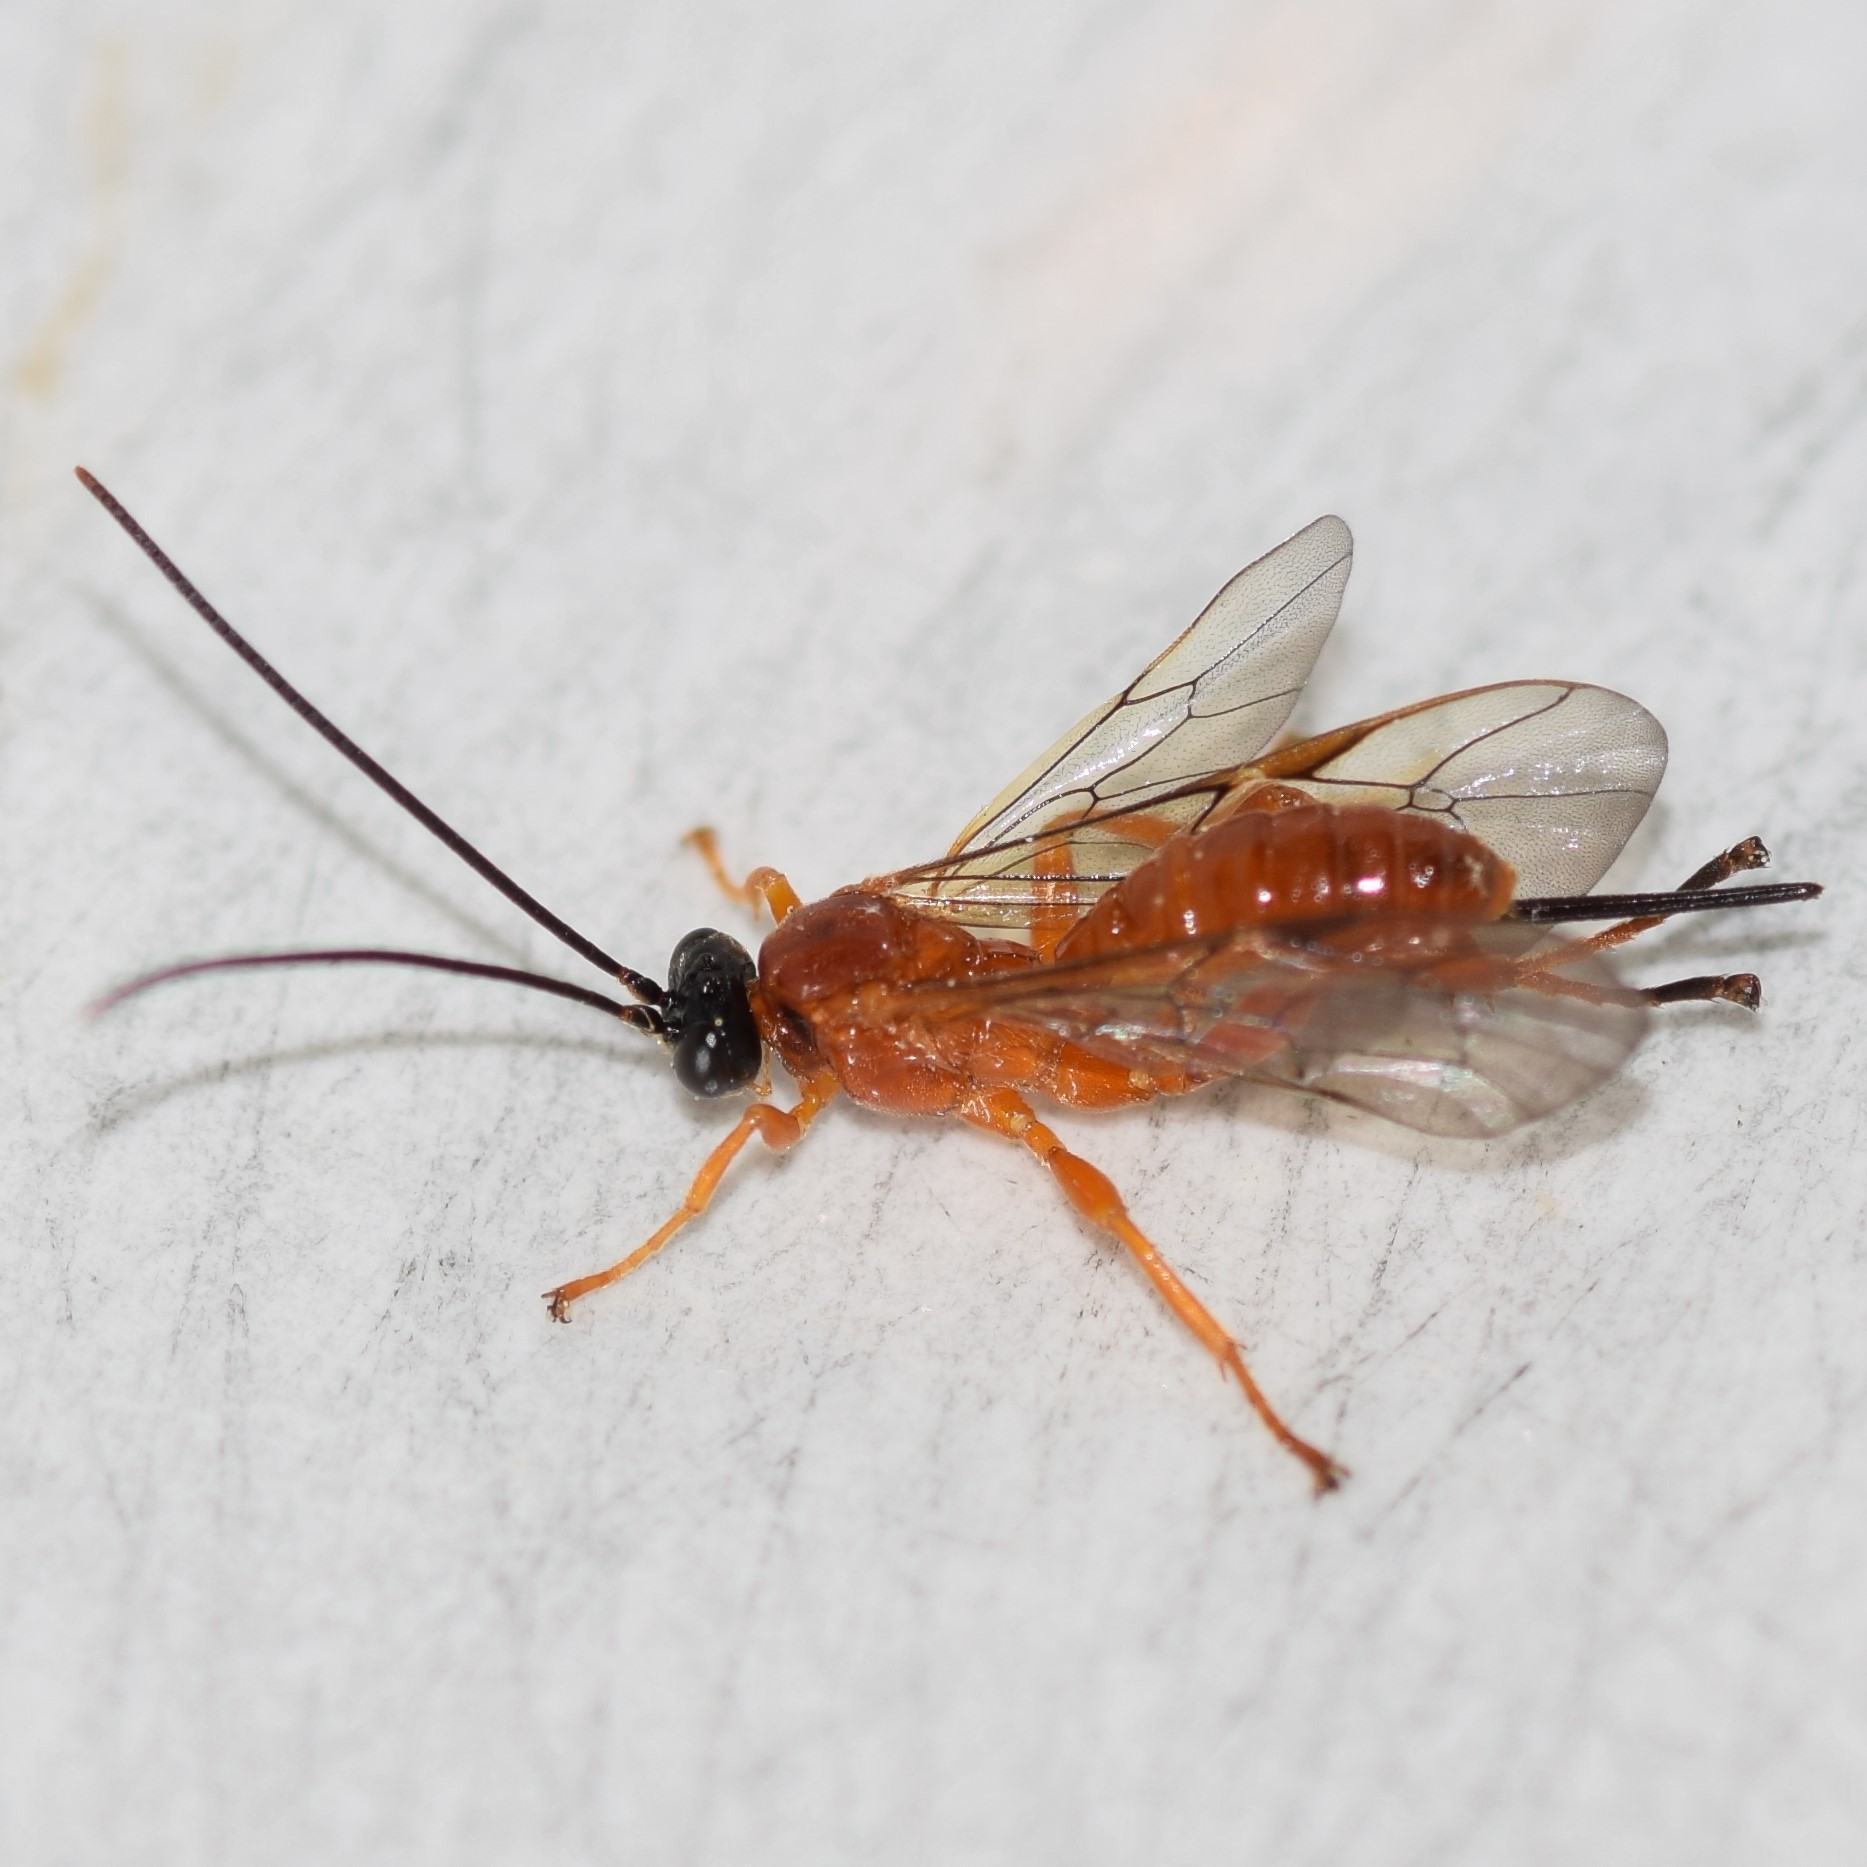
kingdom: Animalia
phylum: Arthropoda
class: Insecta
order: Hymenoptera
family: Ichneumonidae
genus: Theronia
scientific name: Theronia hilaris
